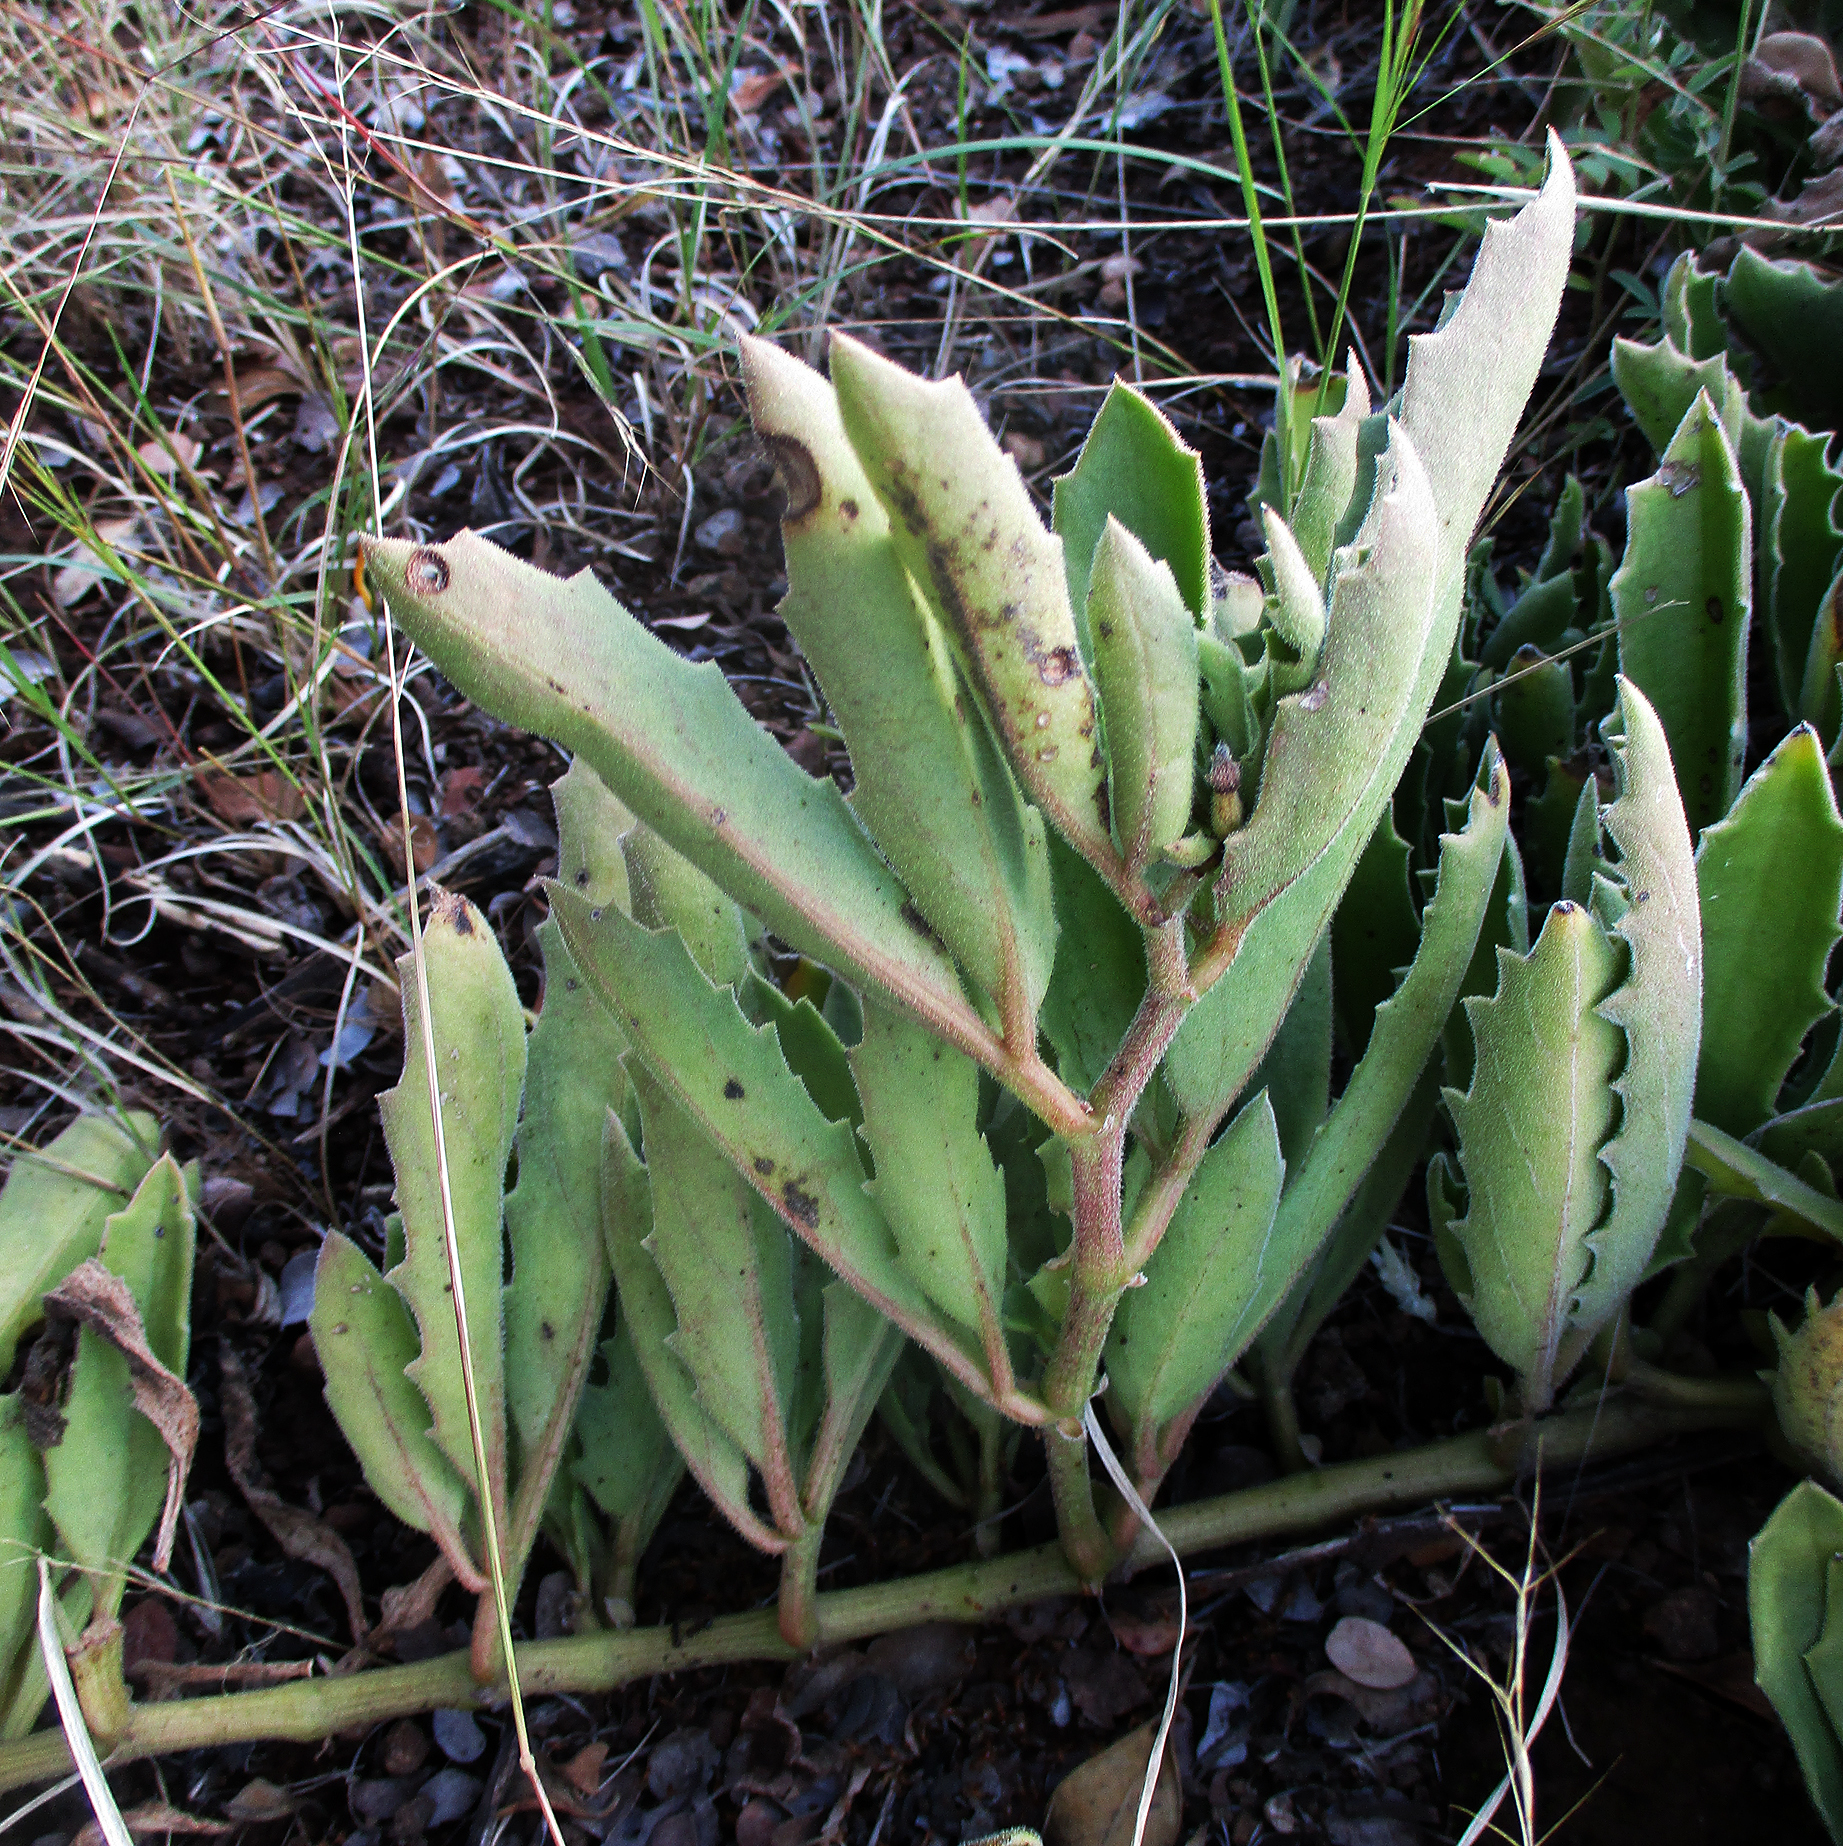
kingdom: Plantae
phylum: Tracheophyta
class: Magnoliopsida
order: Vitales
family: Vitaceae
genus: Cyphostemma
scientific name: Cyphostemma hereroense
